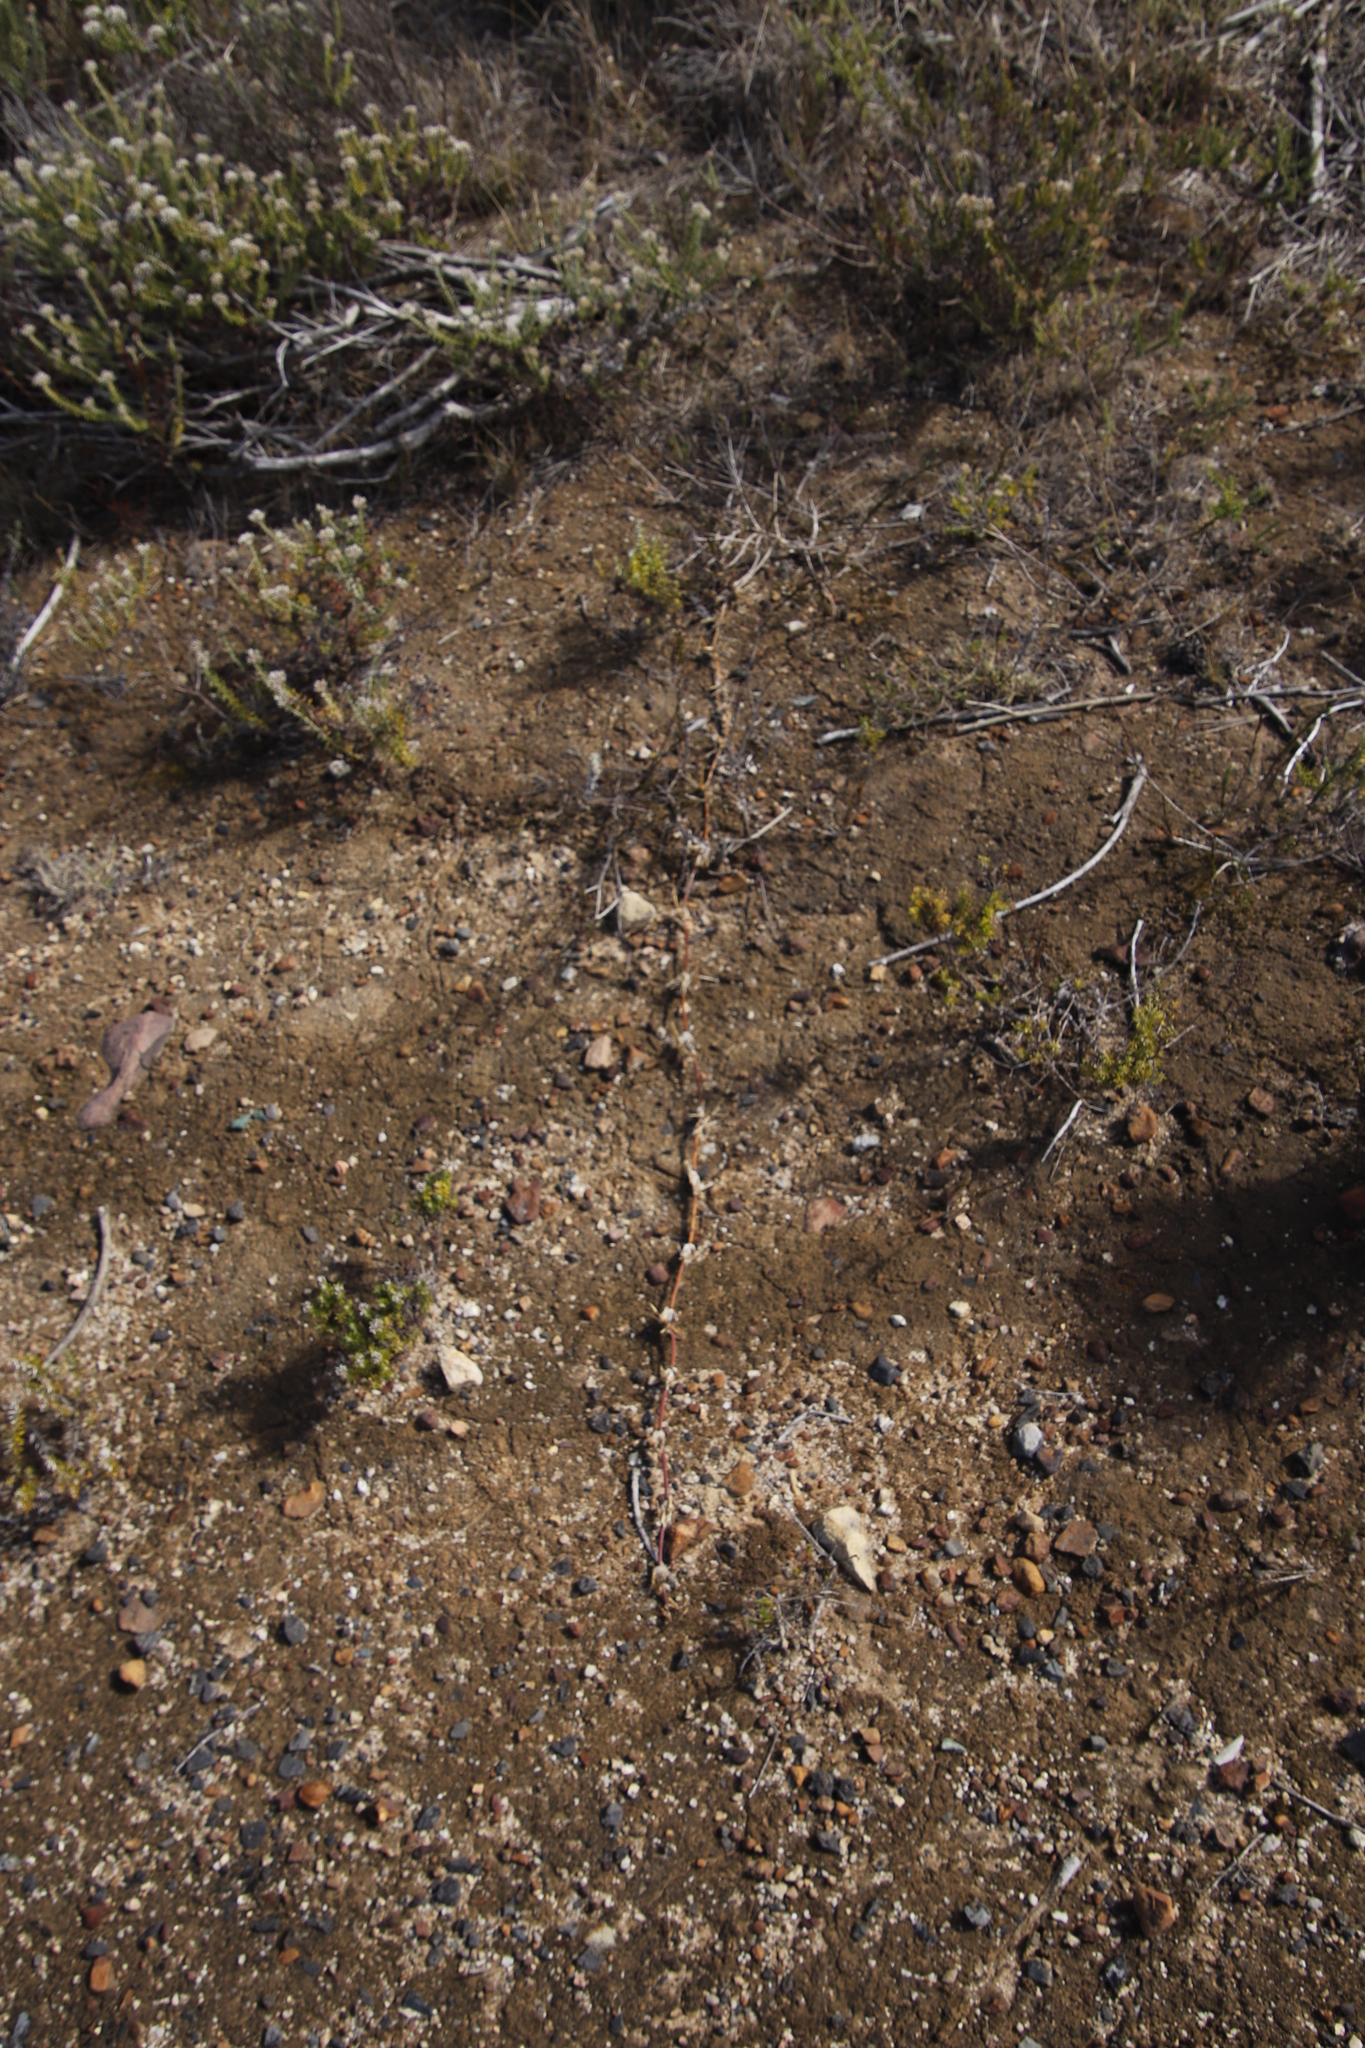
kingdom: Plantae
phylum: Tracheophyta
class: Liliopsida
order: Poales
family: Poaceae
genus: Stenotaphrum
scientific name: Stenotaphrum secundatum
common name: St. augustine grass
